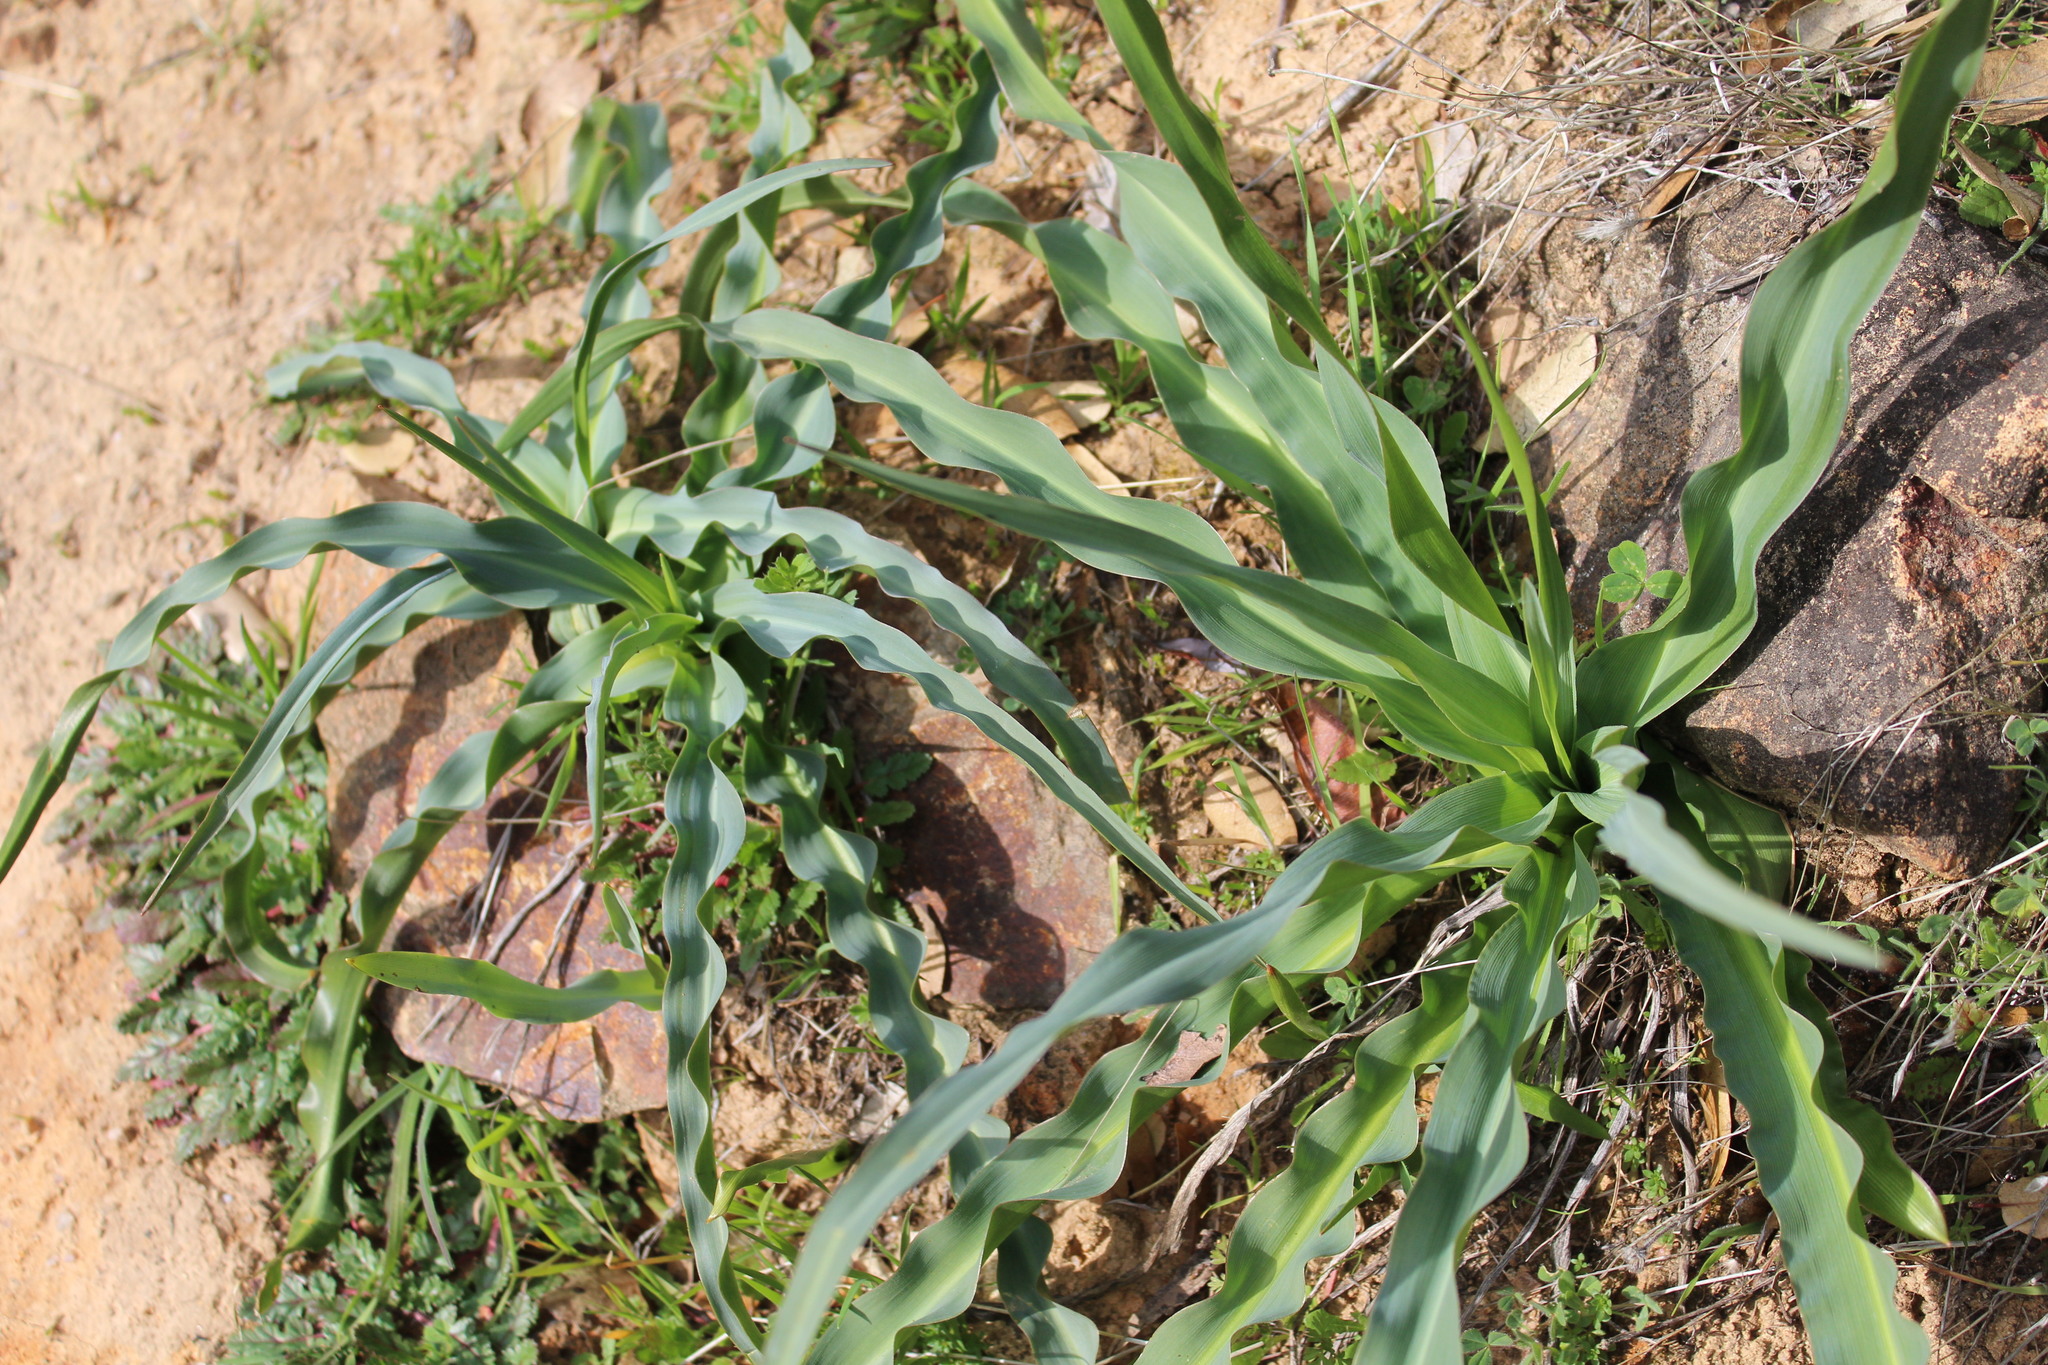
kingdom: Plantae
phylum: Tracheophyta
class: Liliopsida
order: Asparagales
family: Asparagaceae
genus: Chlorogalum
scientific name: Chlorogalum pomeridianum
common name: Amole
